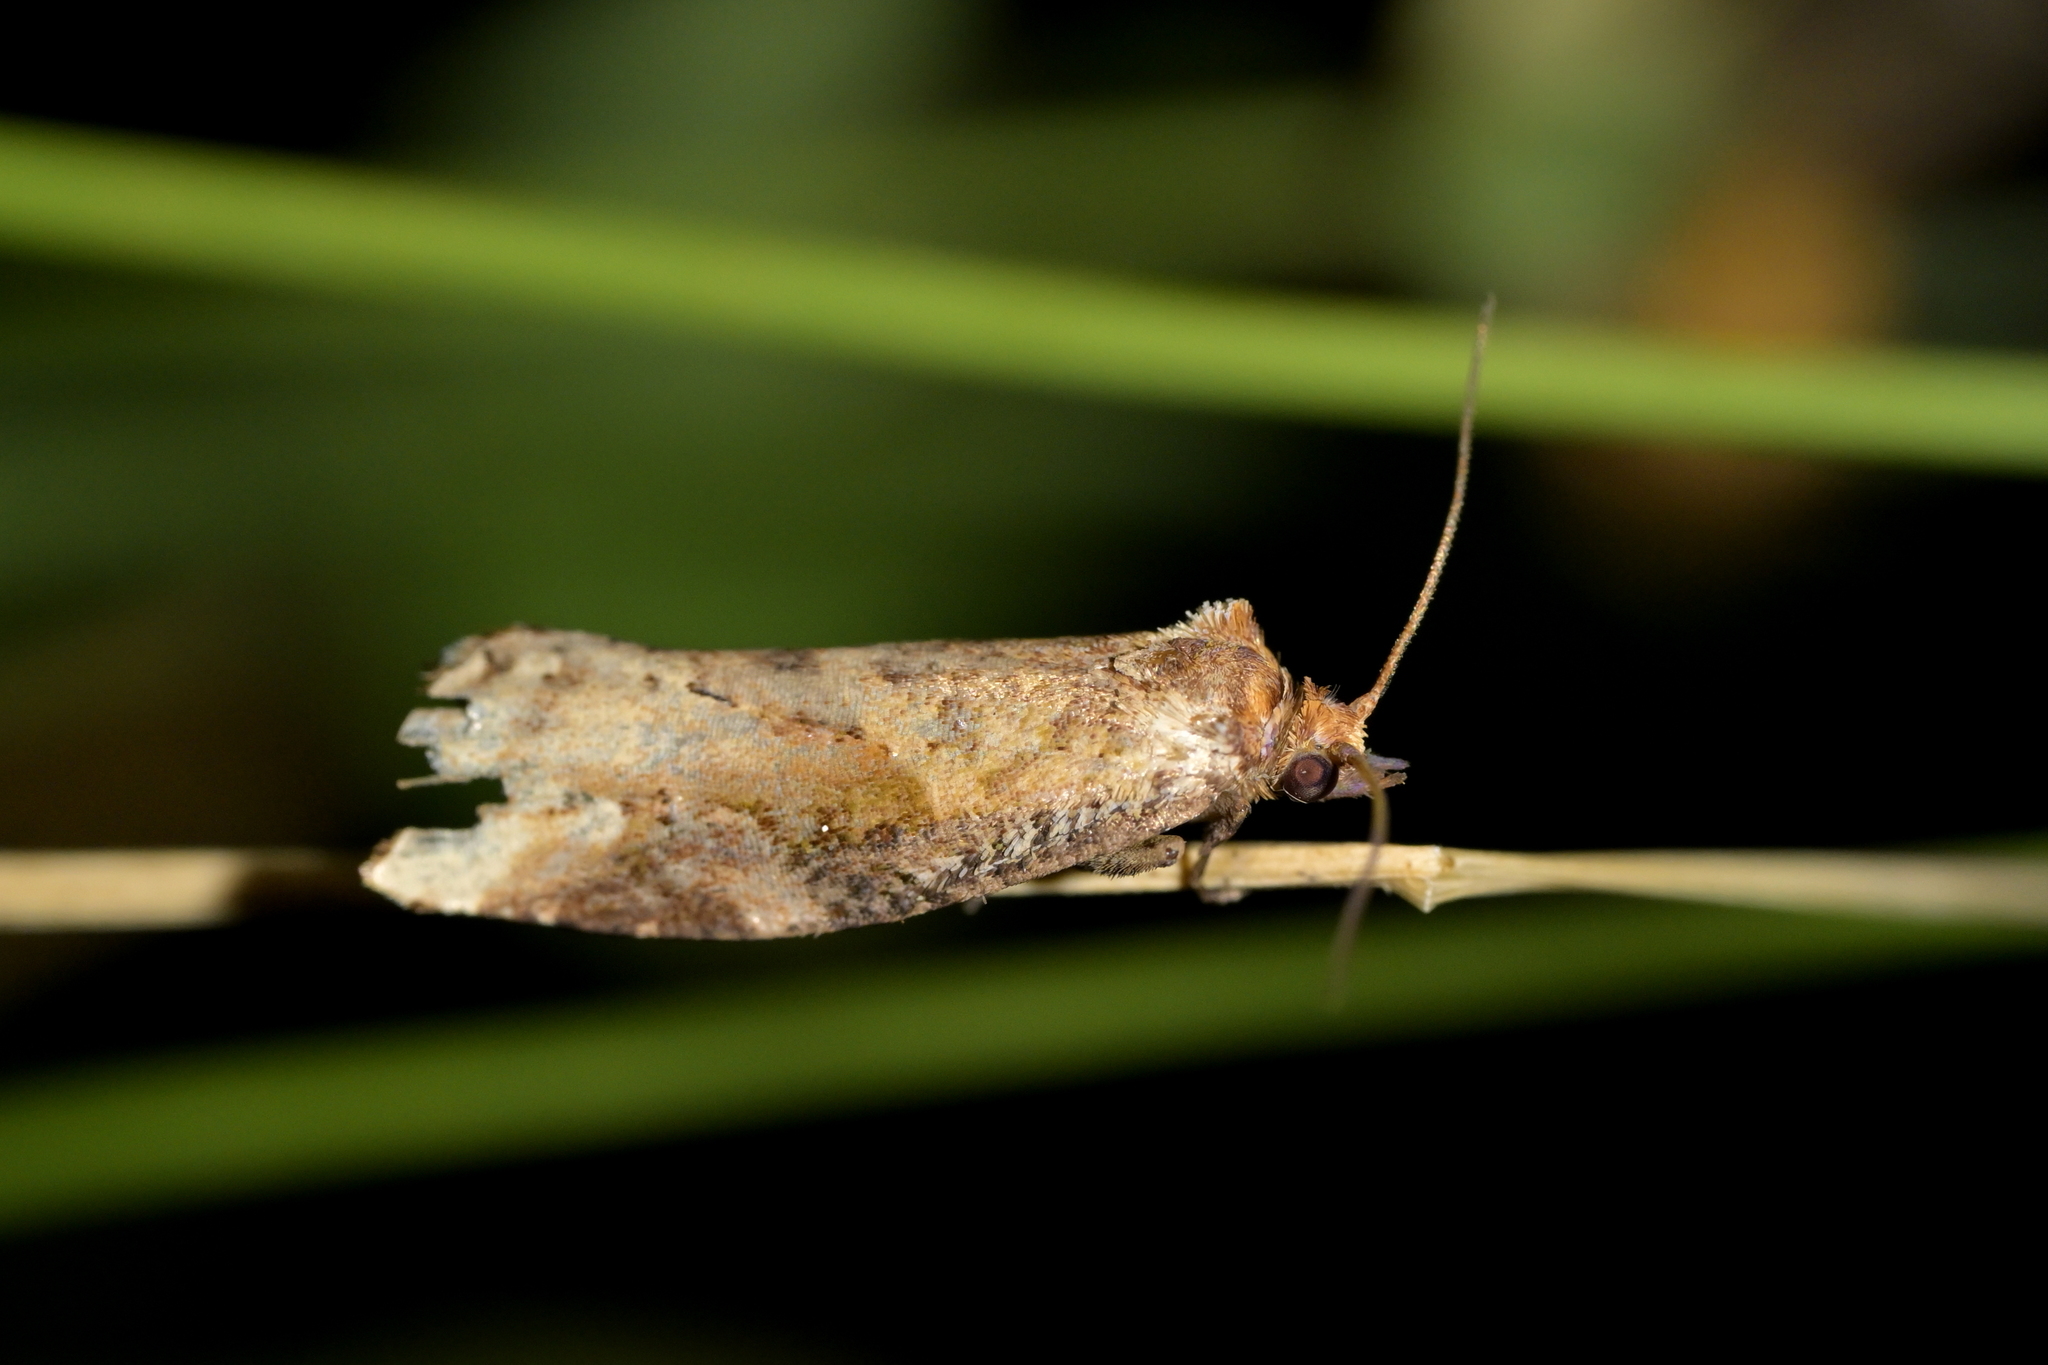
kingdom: Animalia
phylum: Arthropoda
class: Insecta
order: Lepidoptera
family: Tortricidae
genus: Epalxiphora
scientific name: Epalxiphora axenana
